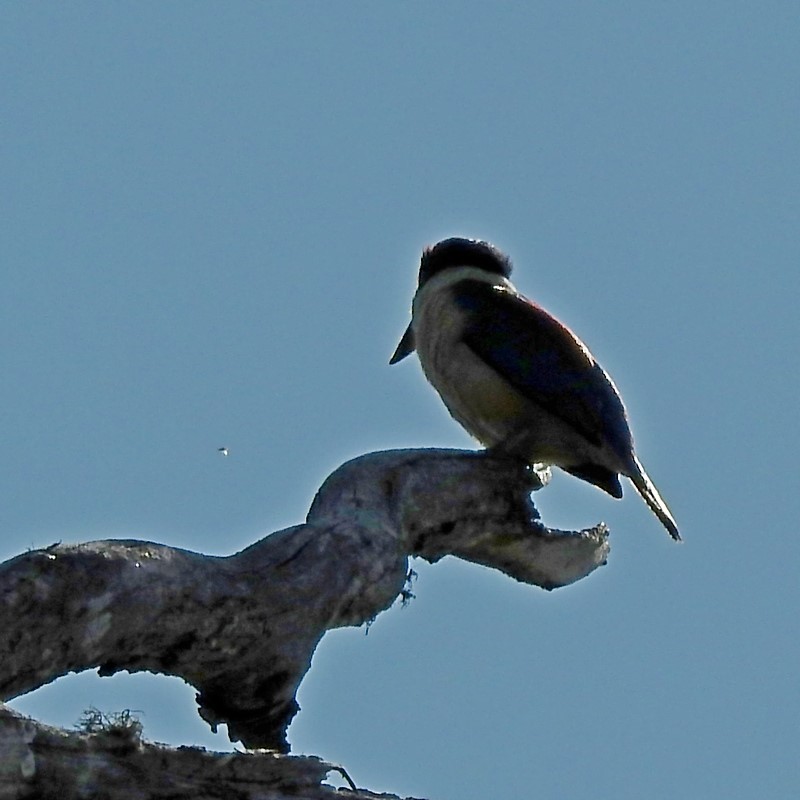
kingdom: Animalia
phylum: Chordata
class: Aves
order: Coraciiformes
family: Alcedinidae
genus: Todiramphus
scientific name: Todiramphus sanctus
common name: Sacred kingfisher
